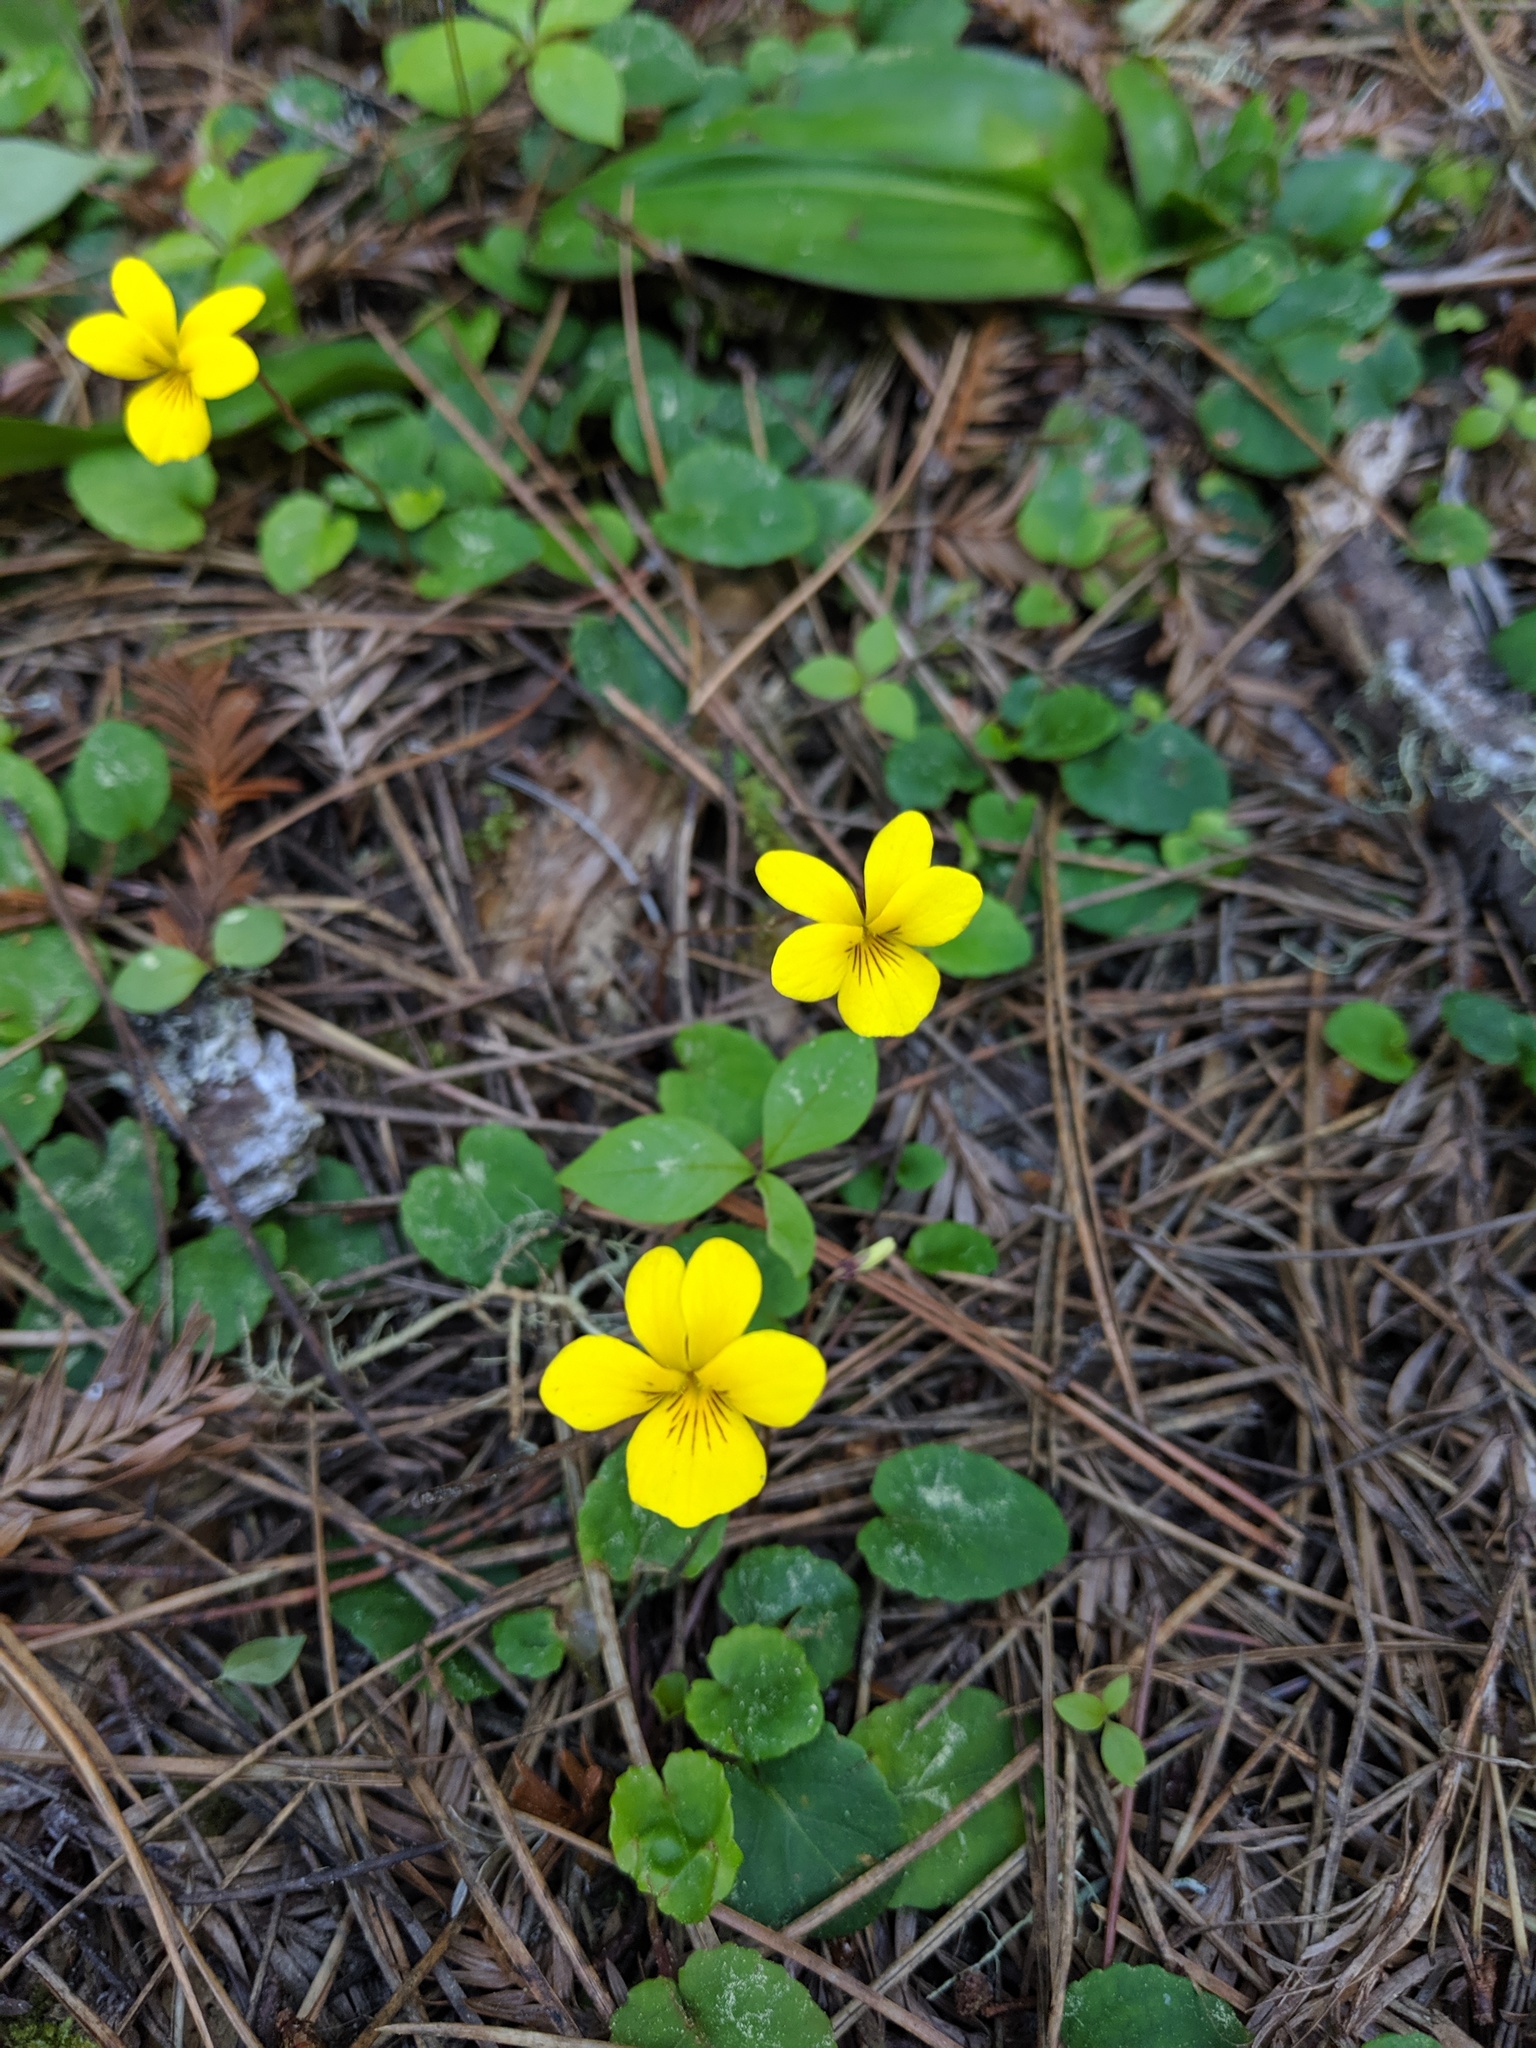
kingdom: Plantae
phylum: Tracheophyta
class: Magnoliopsida
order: Malpighiales
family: Violaceae
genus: Viola
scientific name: Viola sempervirens
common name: Evergreen violet
